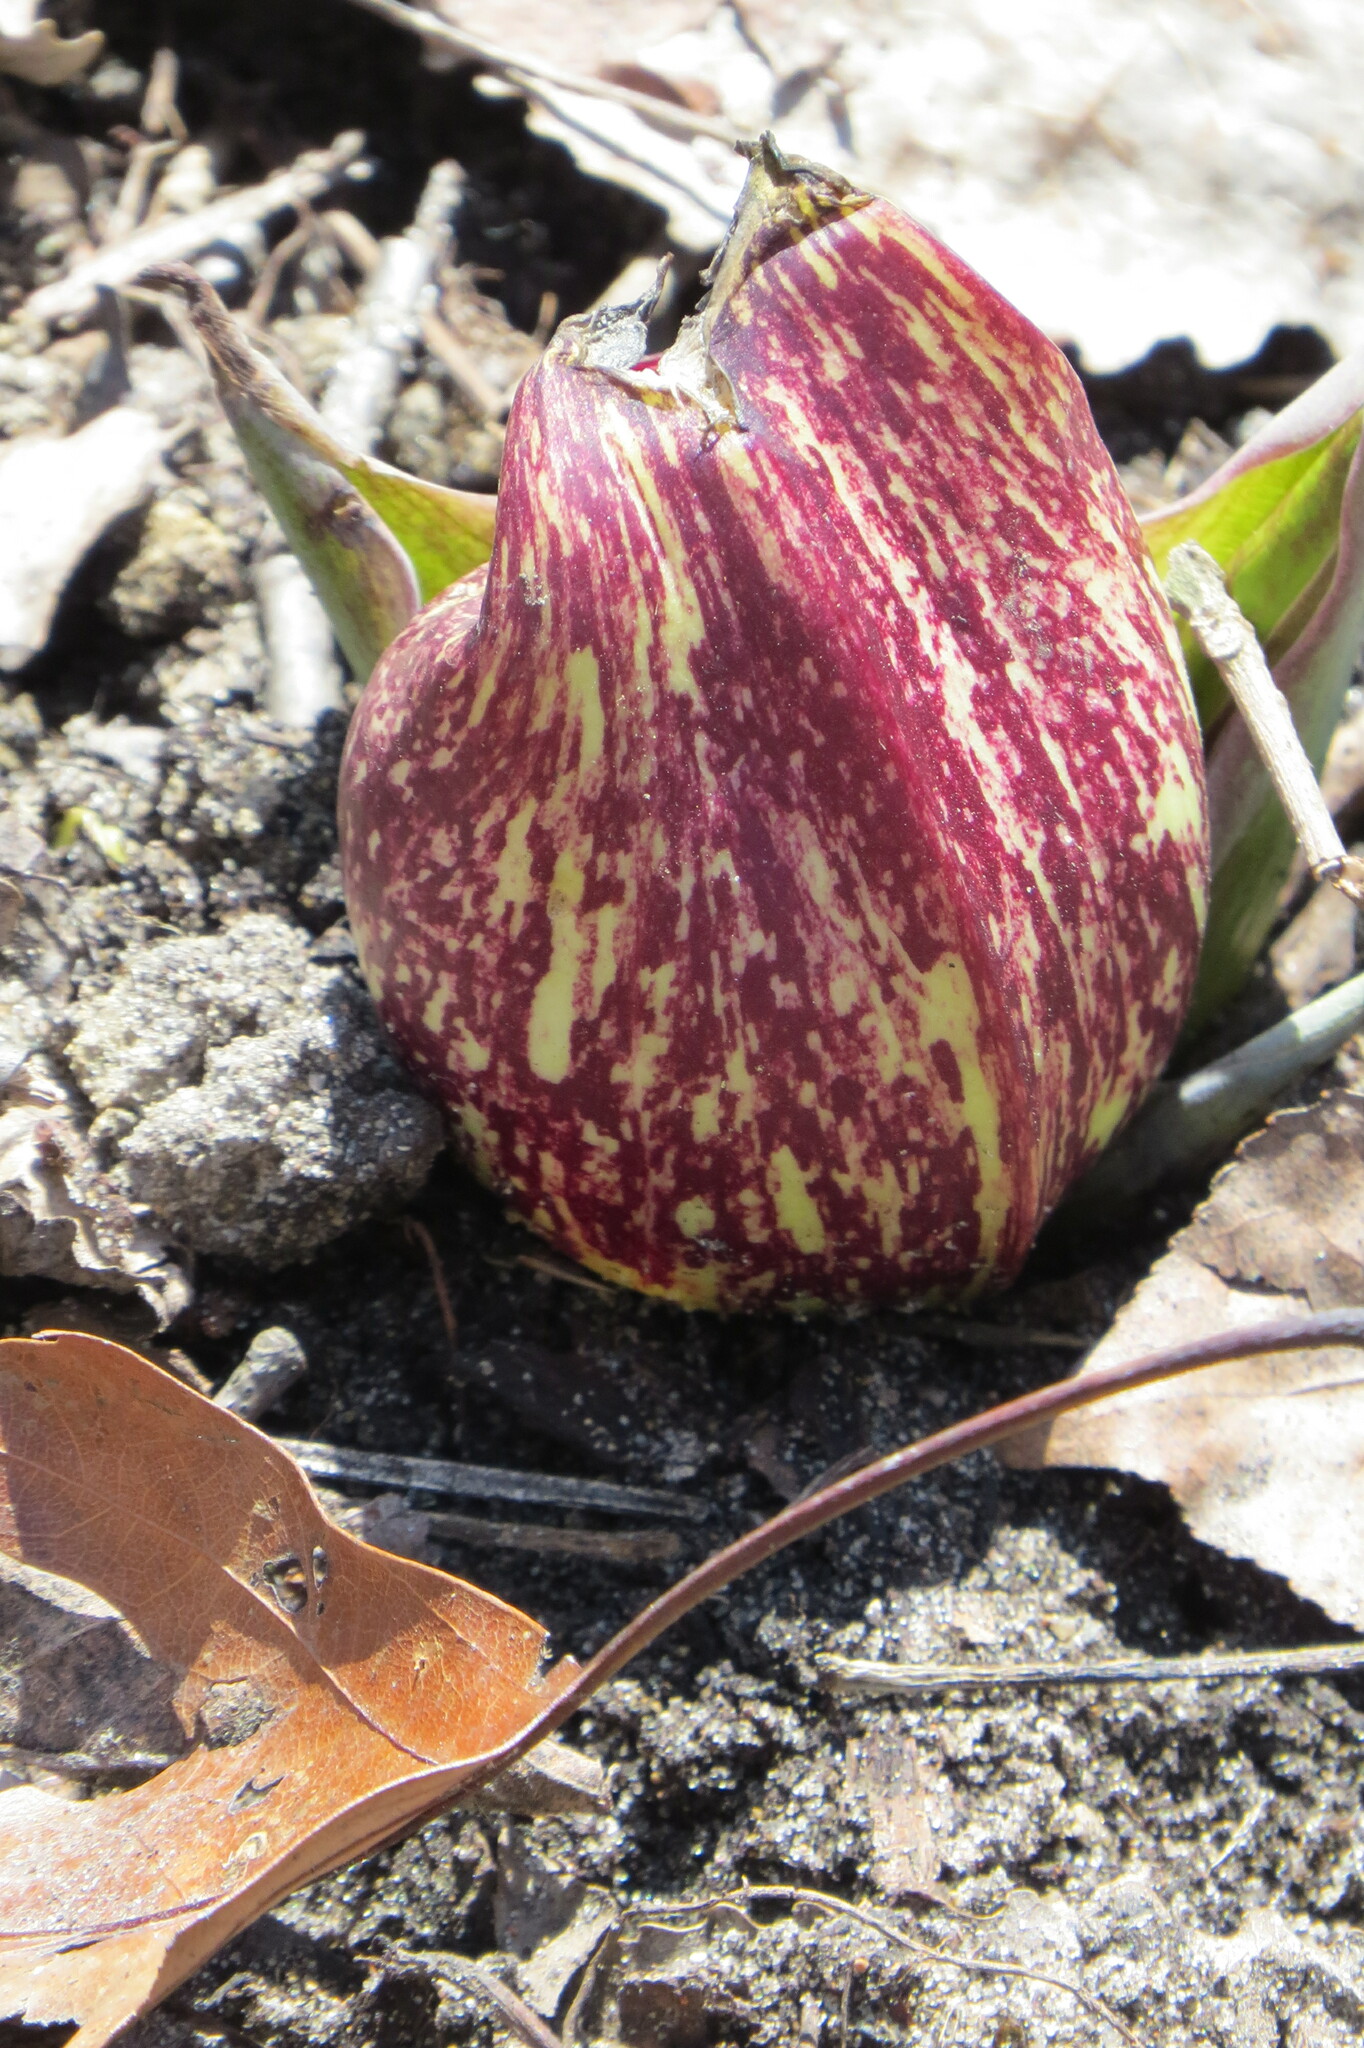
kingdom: Plantae
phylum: Tracheophyta
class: Liliopsida
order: Alismatales
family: Araceae
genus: Symplocarpus
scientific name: Symplocarpus foetidus
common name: Eastern skunk cabbage
